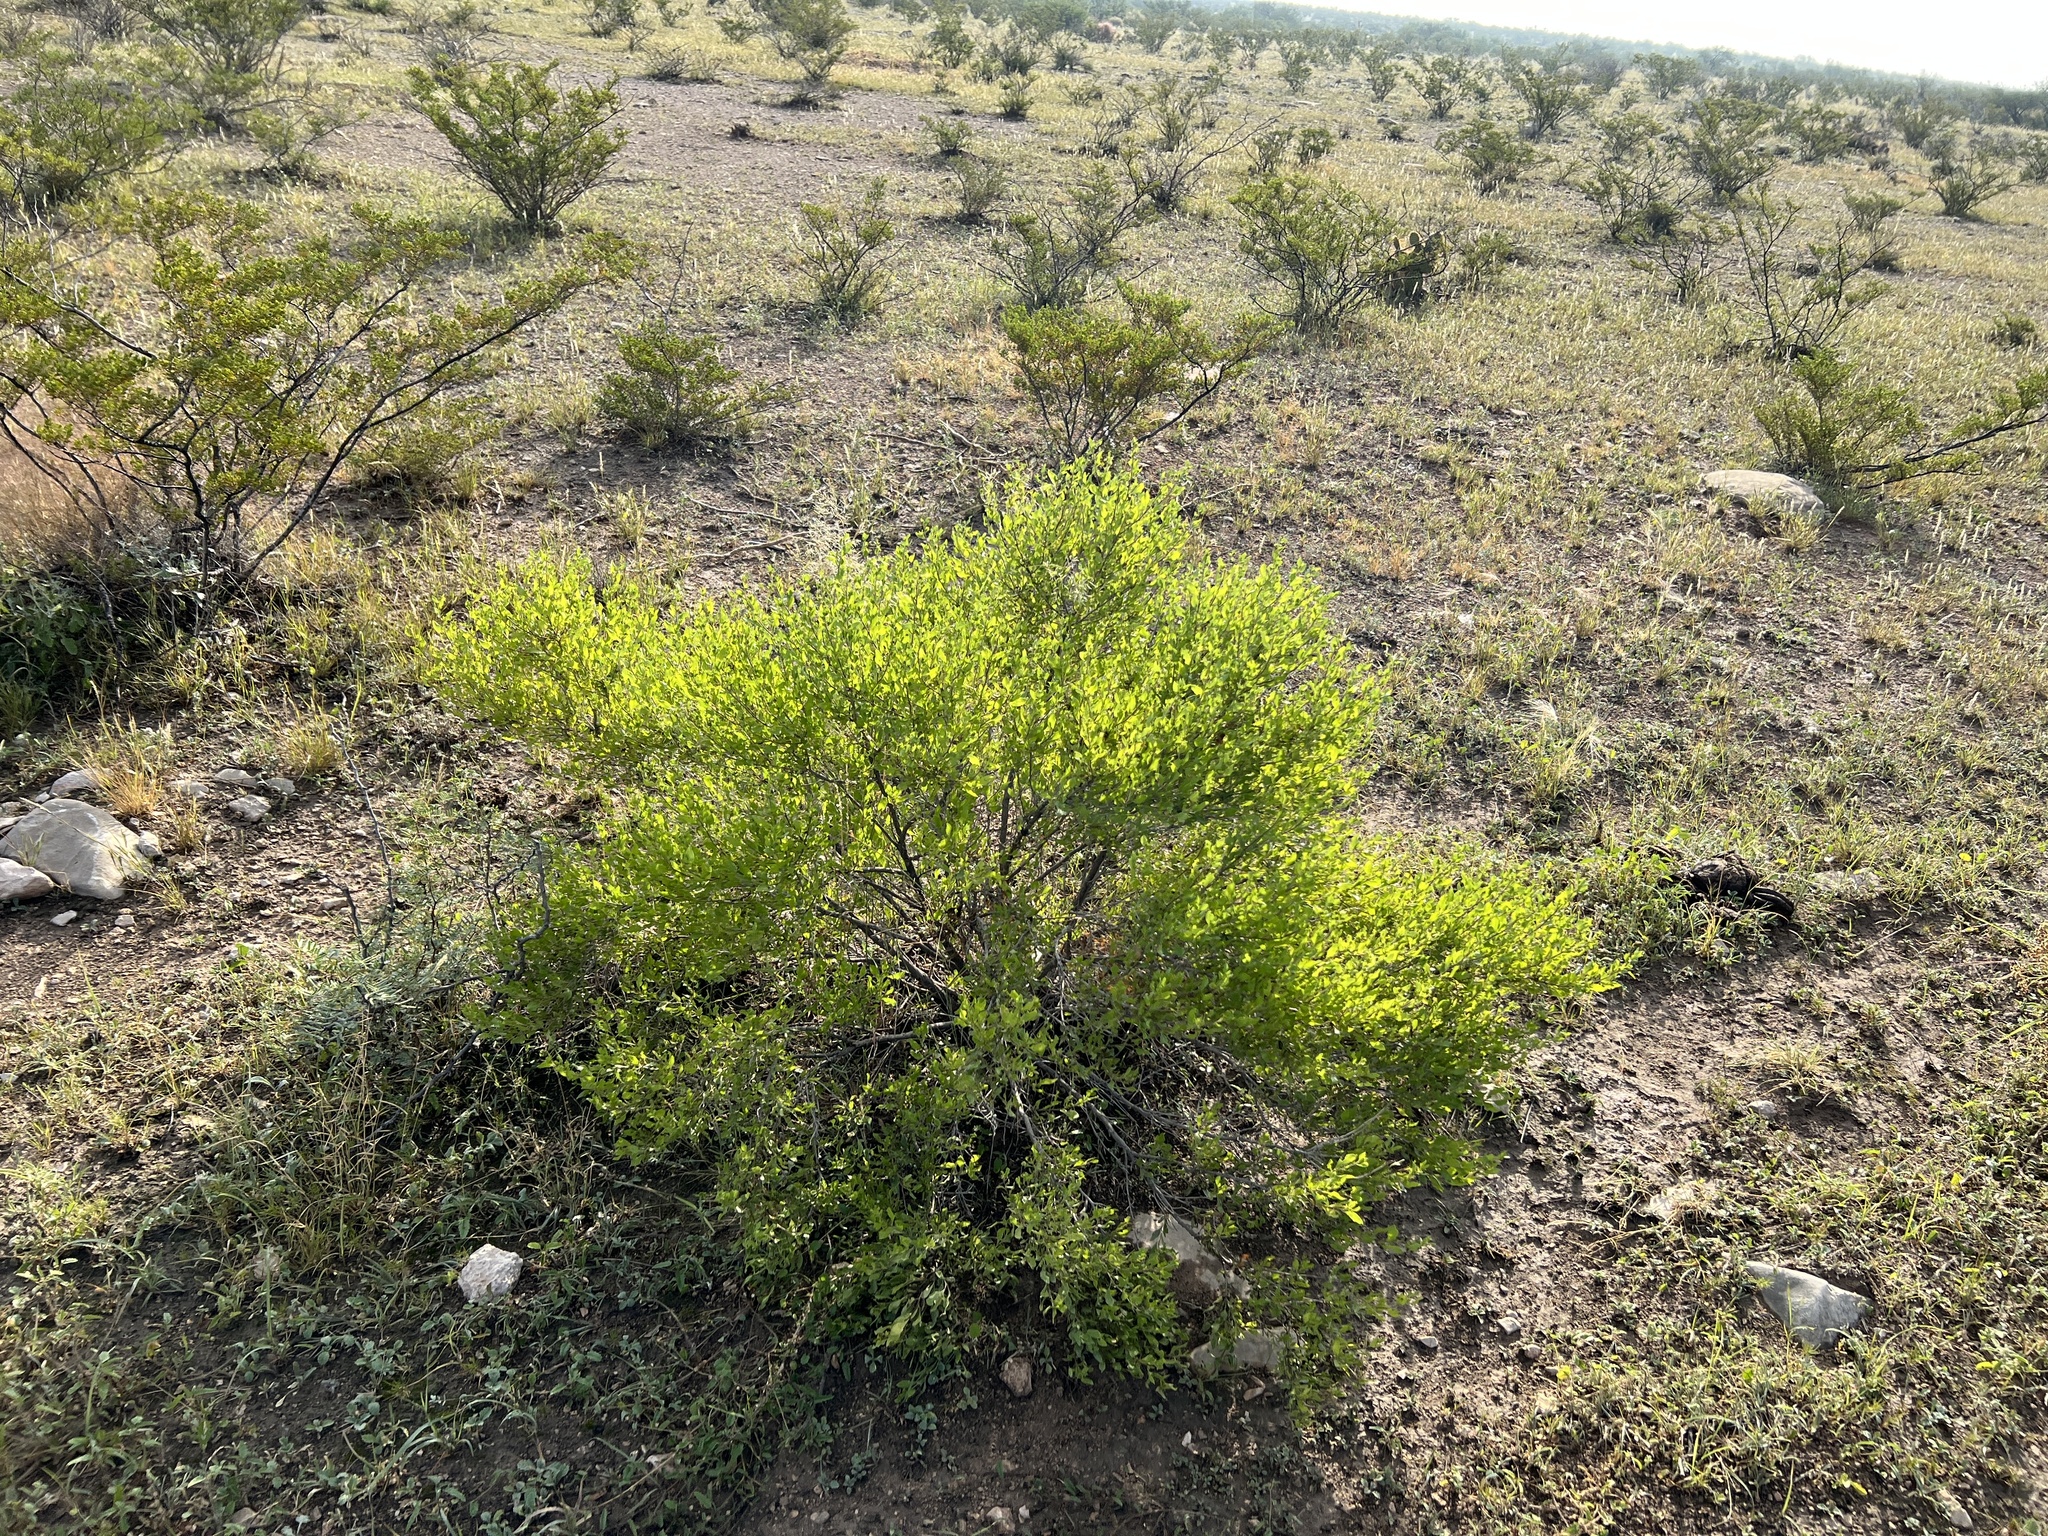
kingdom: Plantae
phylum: Tracheophyta
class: Magnoliopsida
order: Asterales
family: Asteraceae
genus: Flourensia
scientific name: Flourensia cernua
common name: Varnishbush
